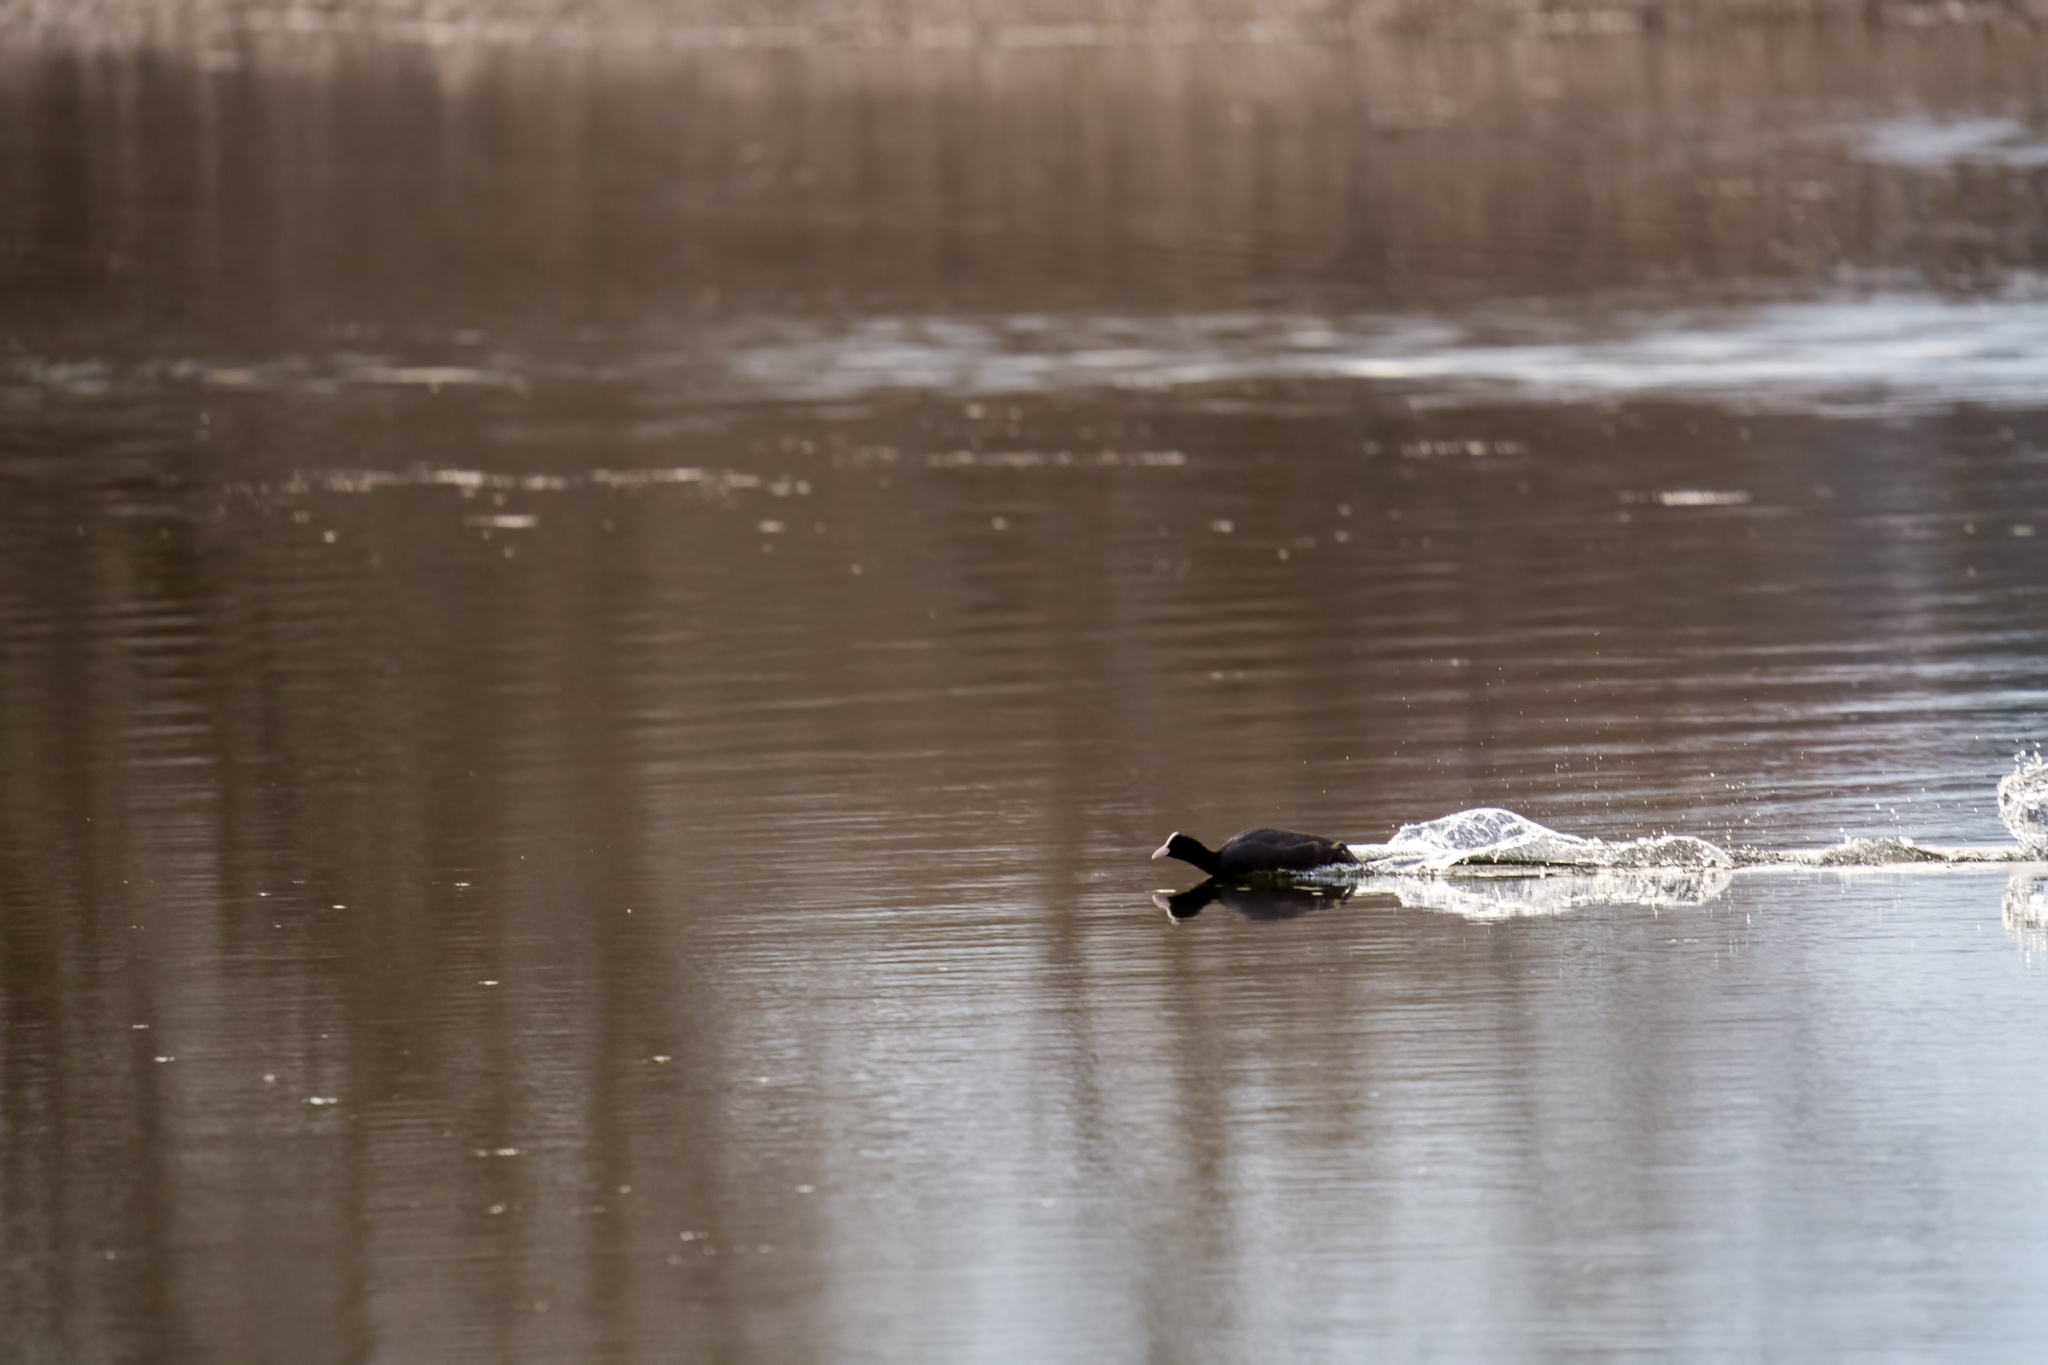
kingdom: Animalia
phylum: Chordata
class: Aves
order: Gruiformes
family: Rallidae
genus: Fulica
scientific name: Fulica atra
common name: Eurasian coot
